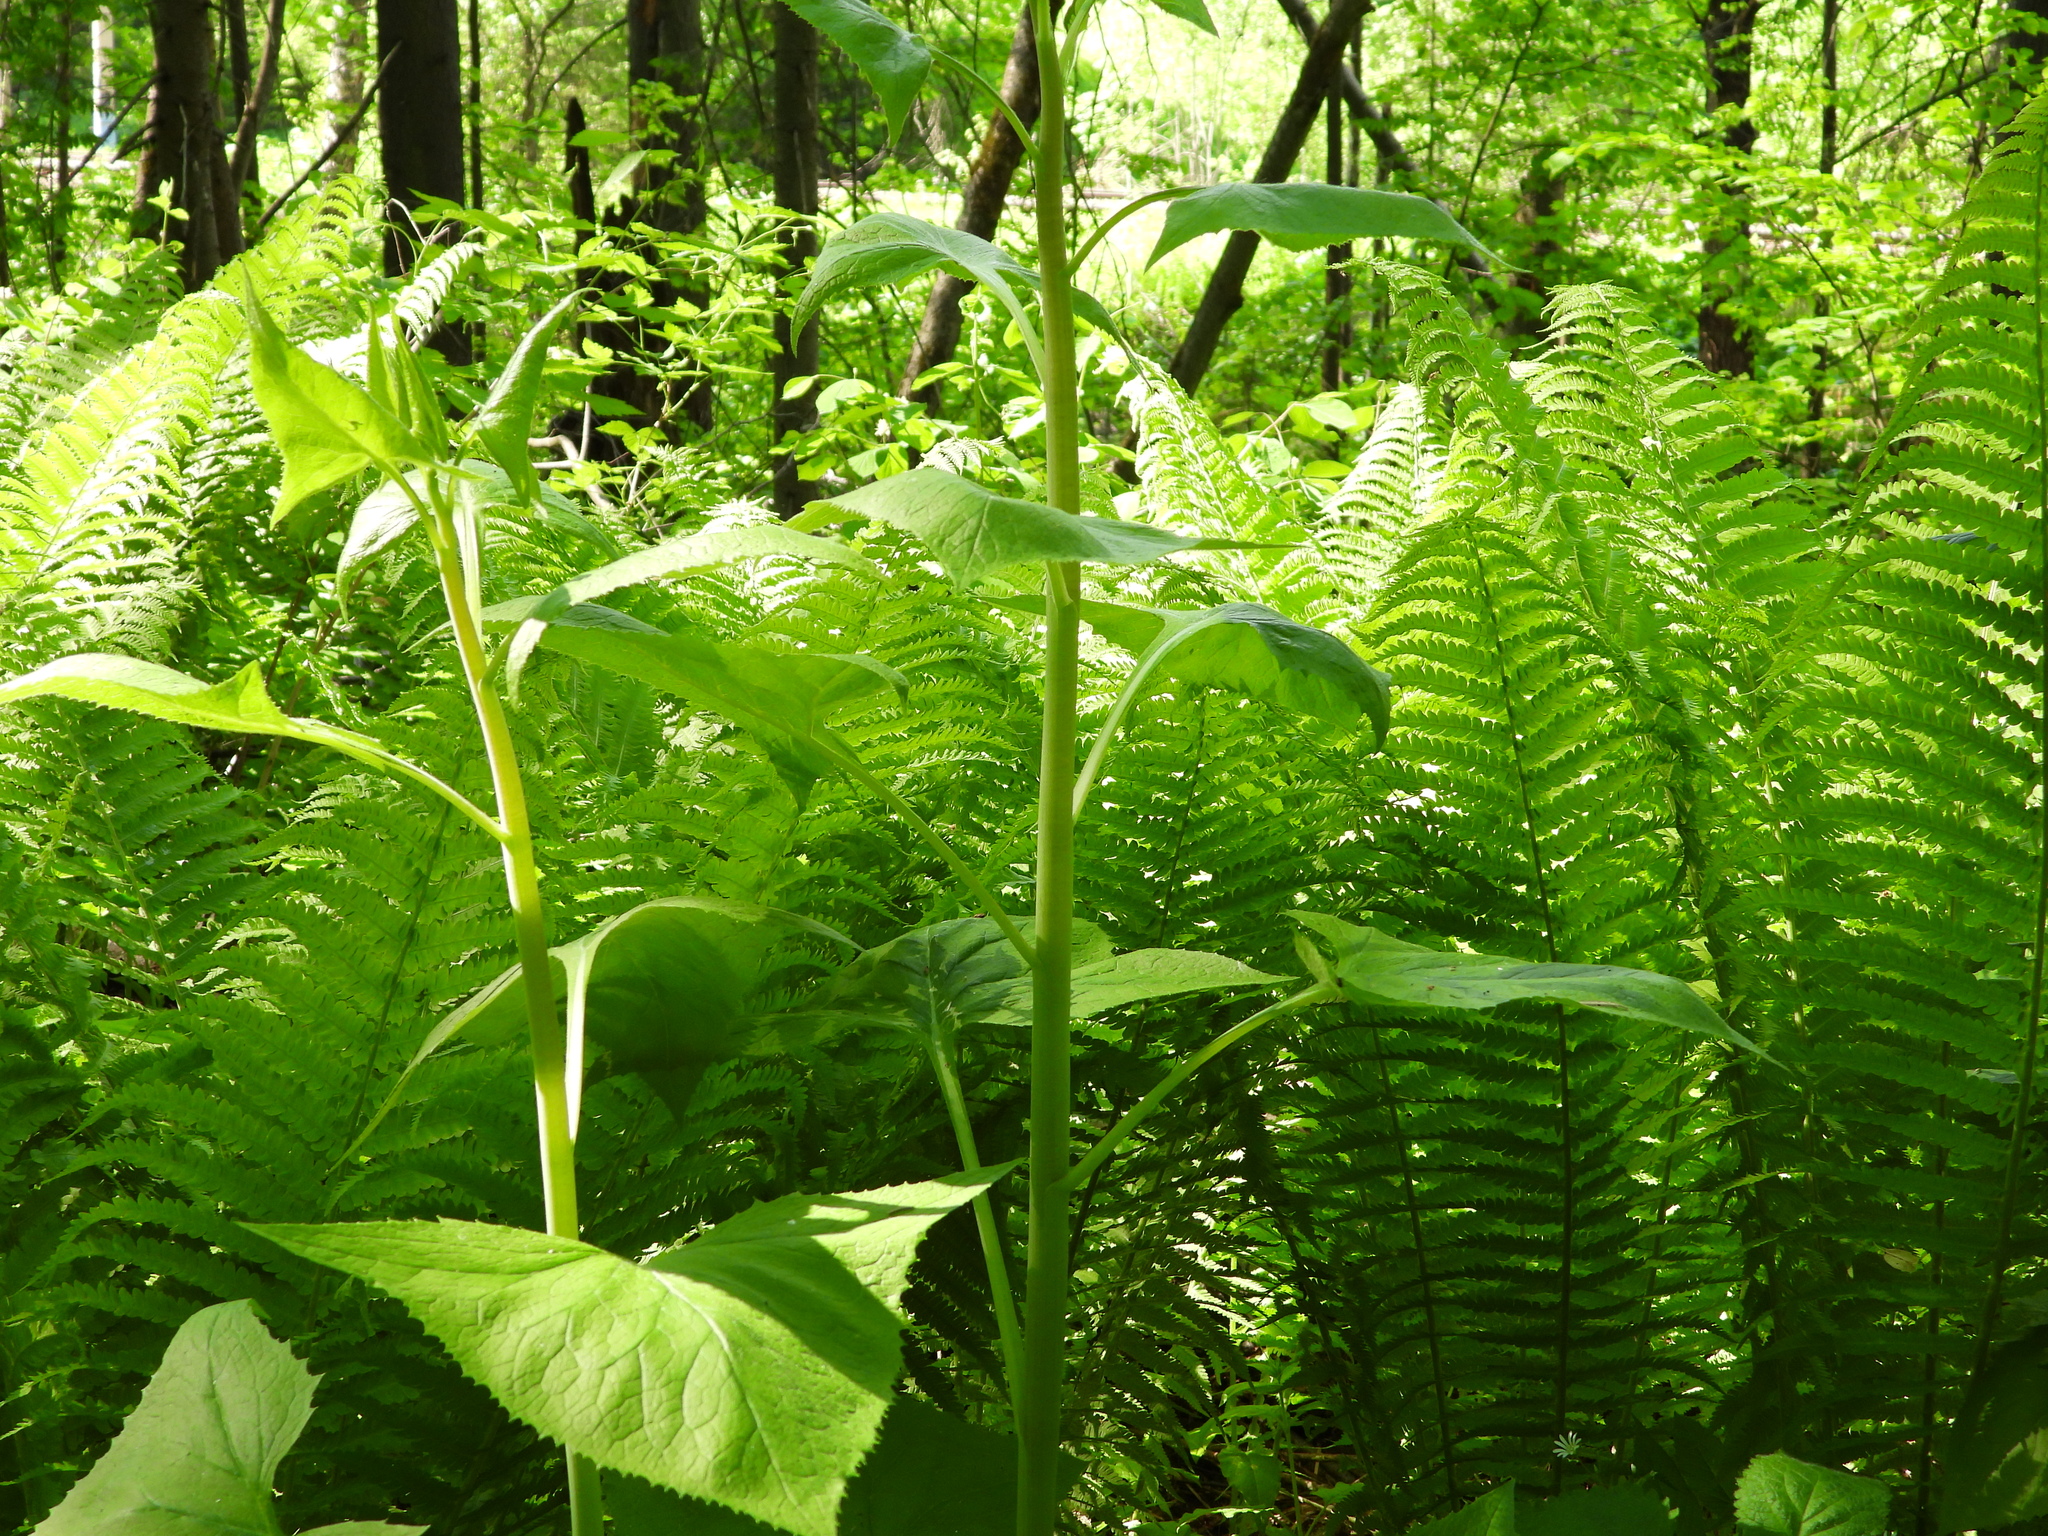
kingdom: Plantae
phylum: Tracheophyta
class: Magnoliopsida
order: Asterales
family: Asteraceae
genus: Parasenecio
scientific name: Parasenecio hastatus
